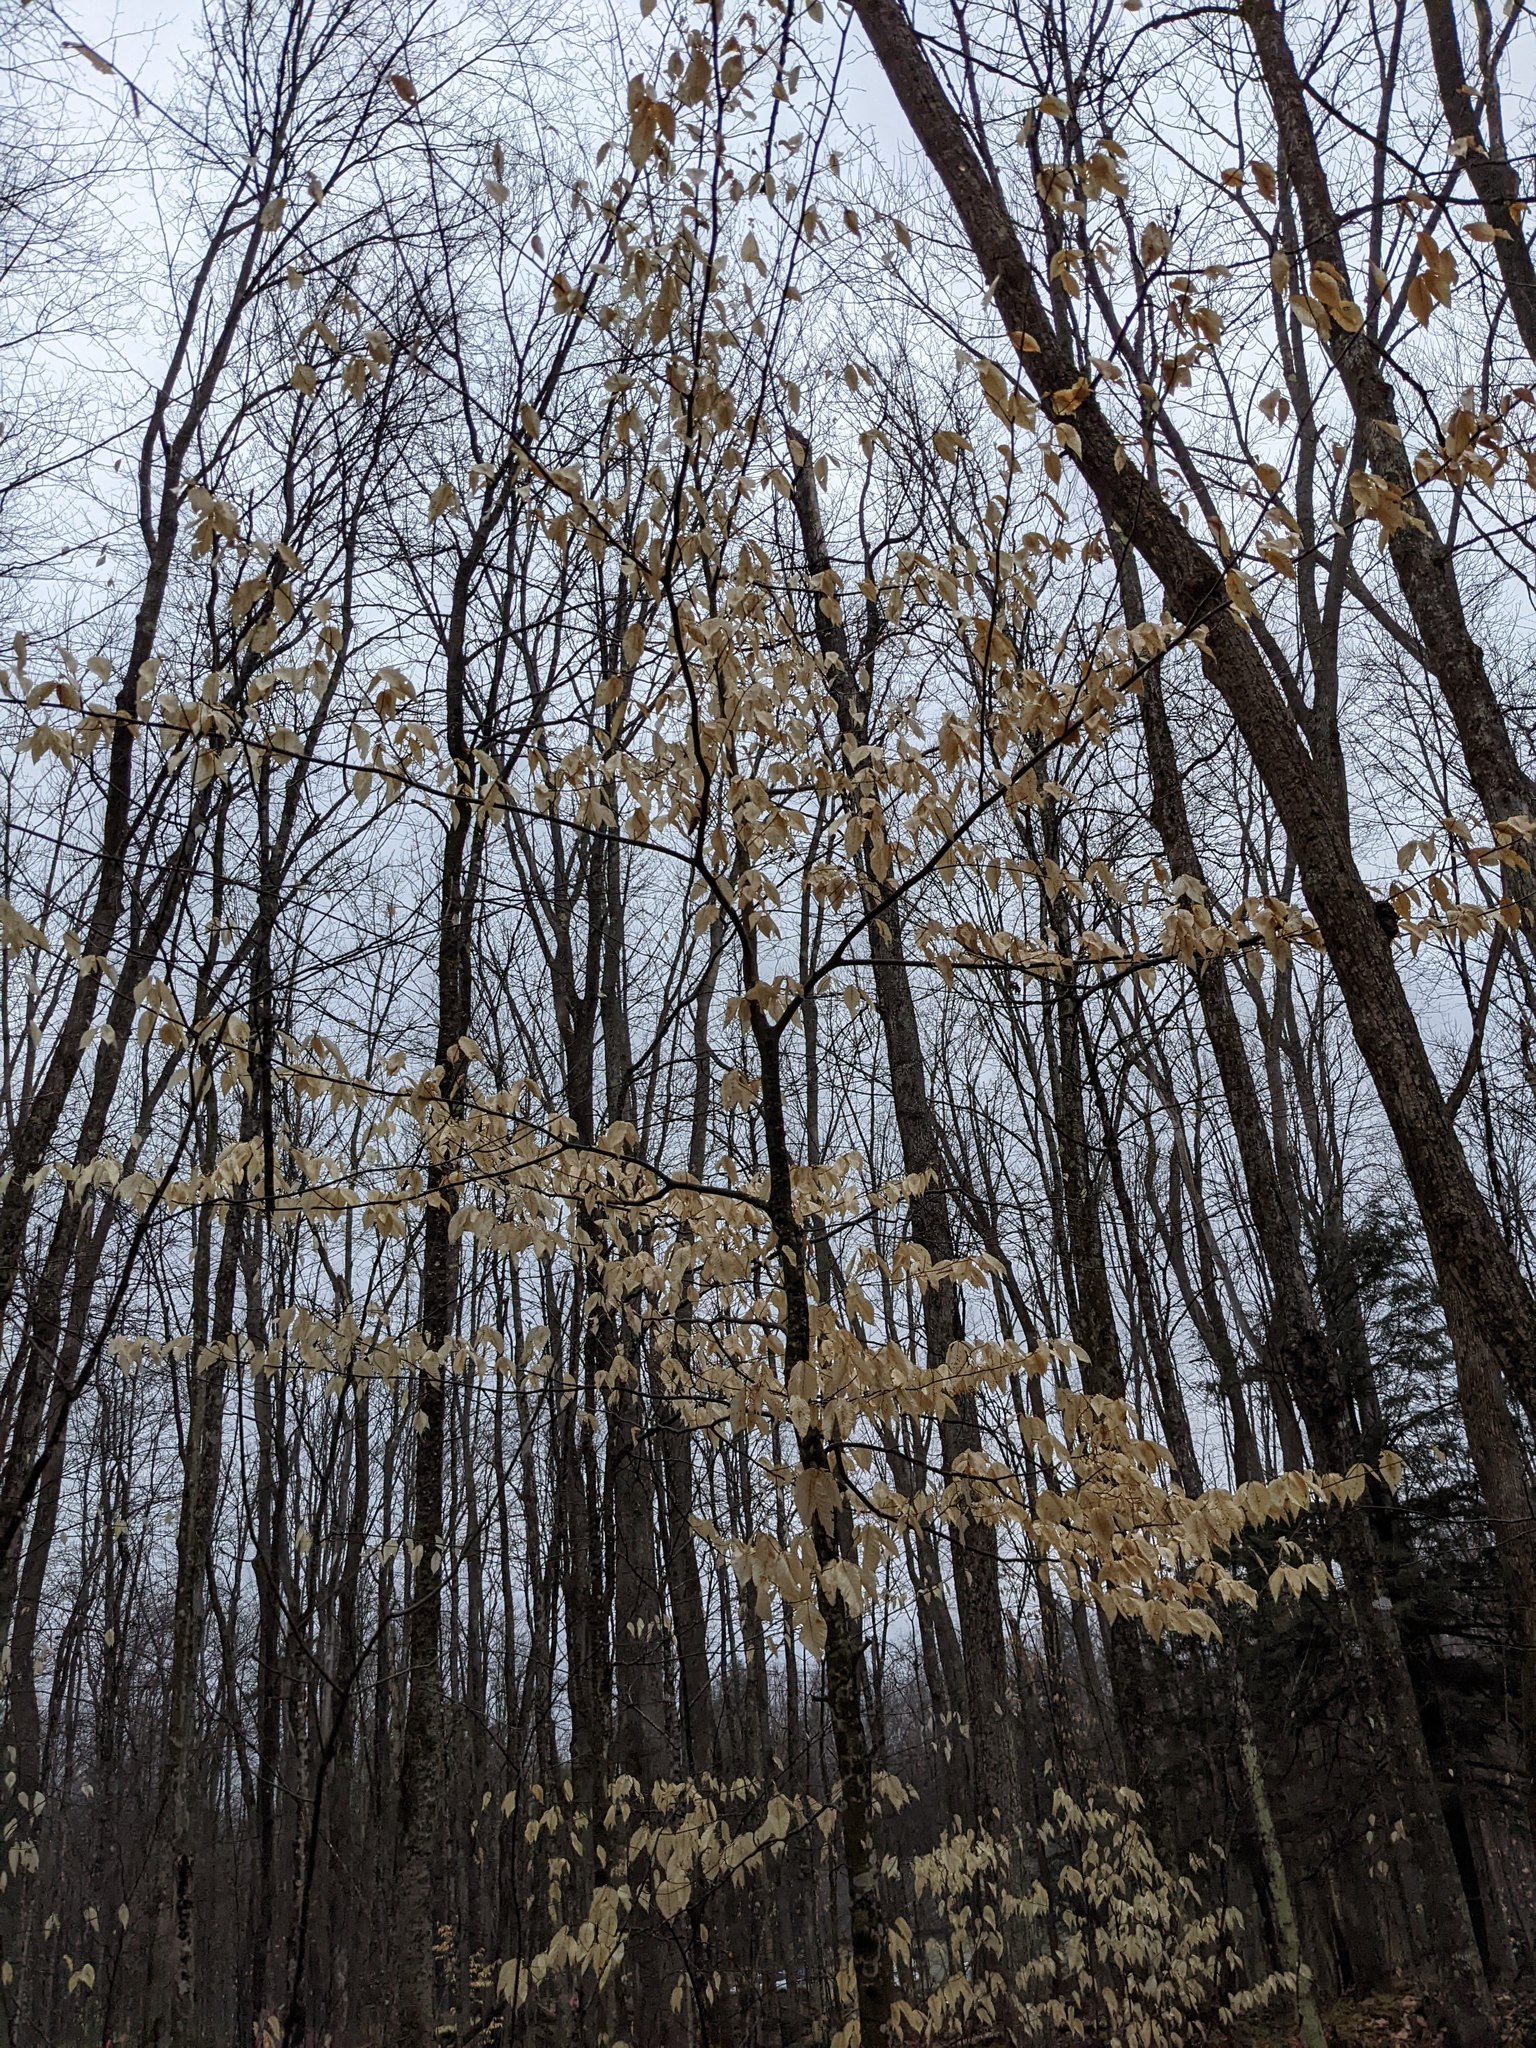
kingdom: Plantae
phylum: Tracheophyta
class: Magnoliopsida
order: Fagales
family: Fagaceae
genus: Fagus
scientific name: Fagus grandifolia
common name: American beech
